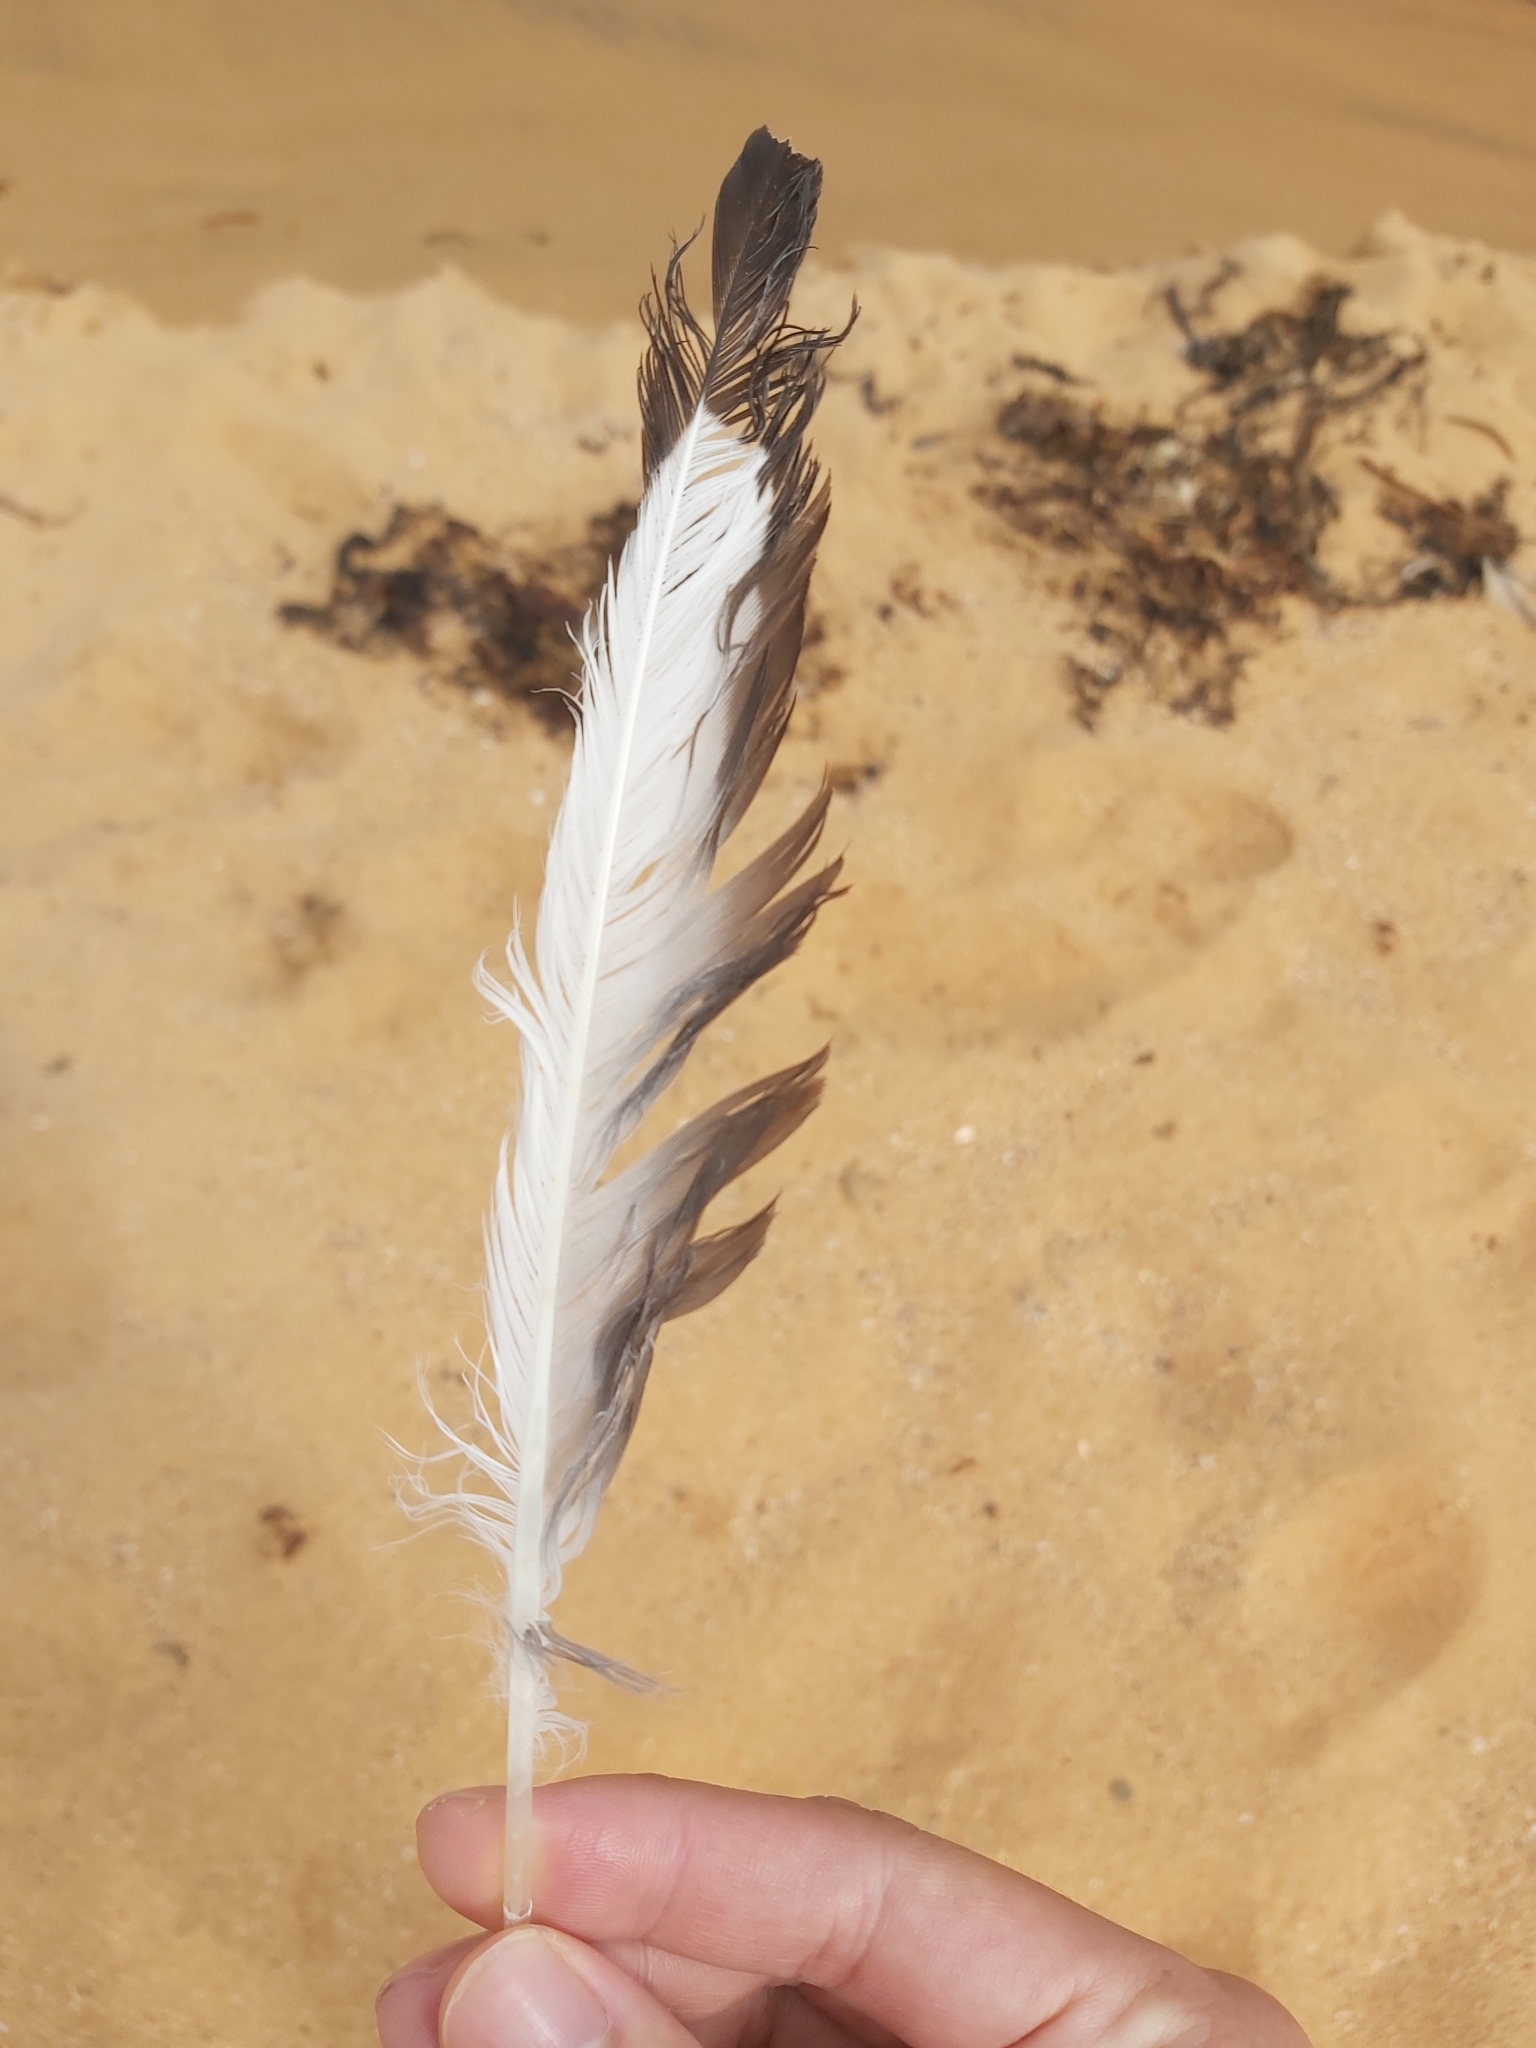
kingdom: Animalia
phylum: Chordata
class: Aves
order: Charadriiformes
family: Laridae
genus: Chroicocephalus
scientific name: Chroicocephalus novaehollandiae
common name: Silver gull
